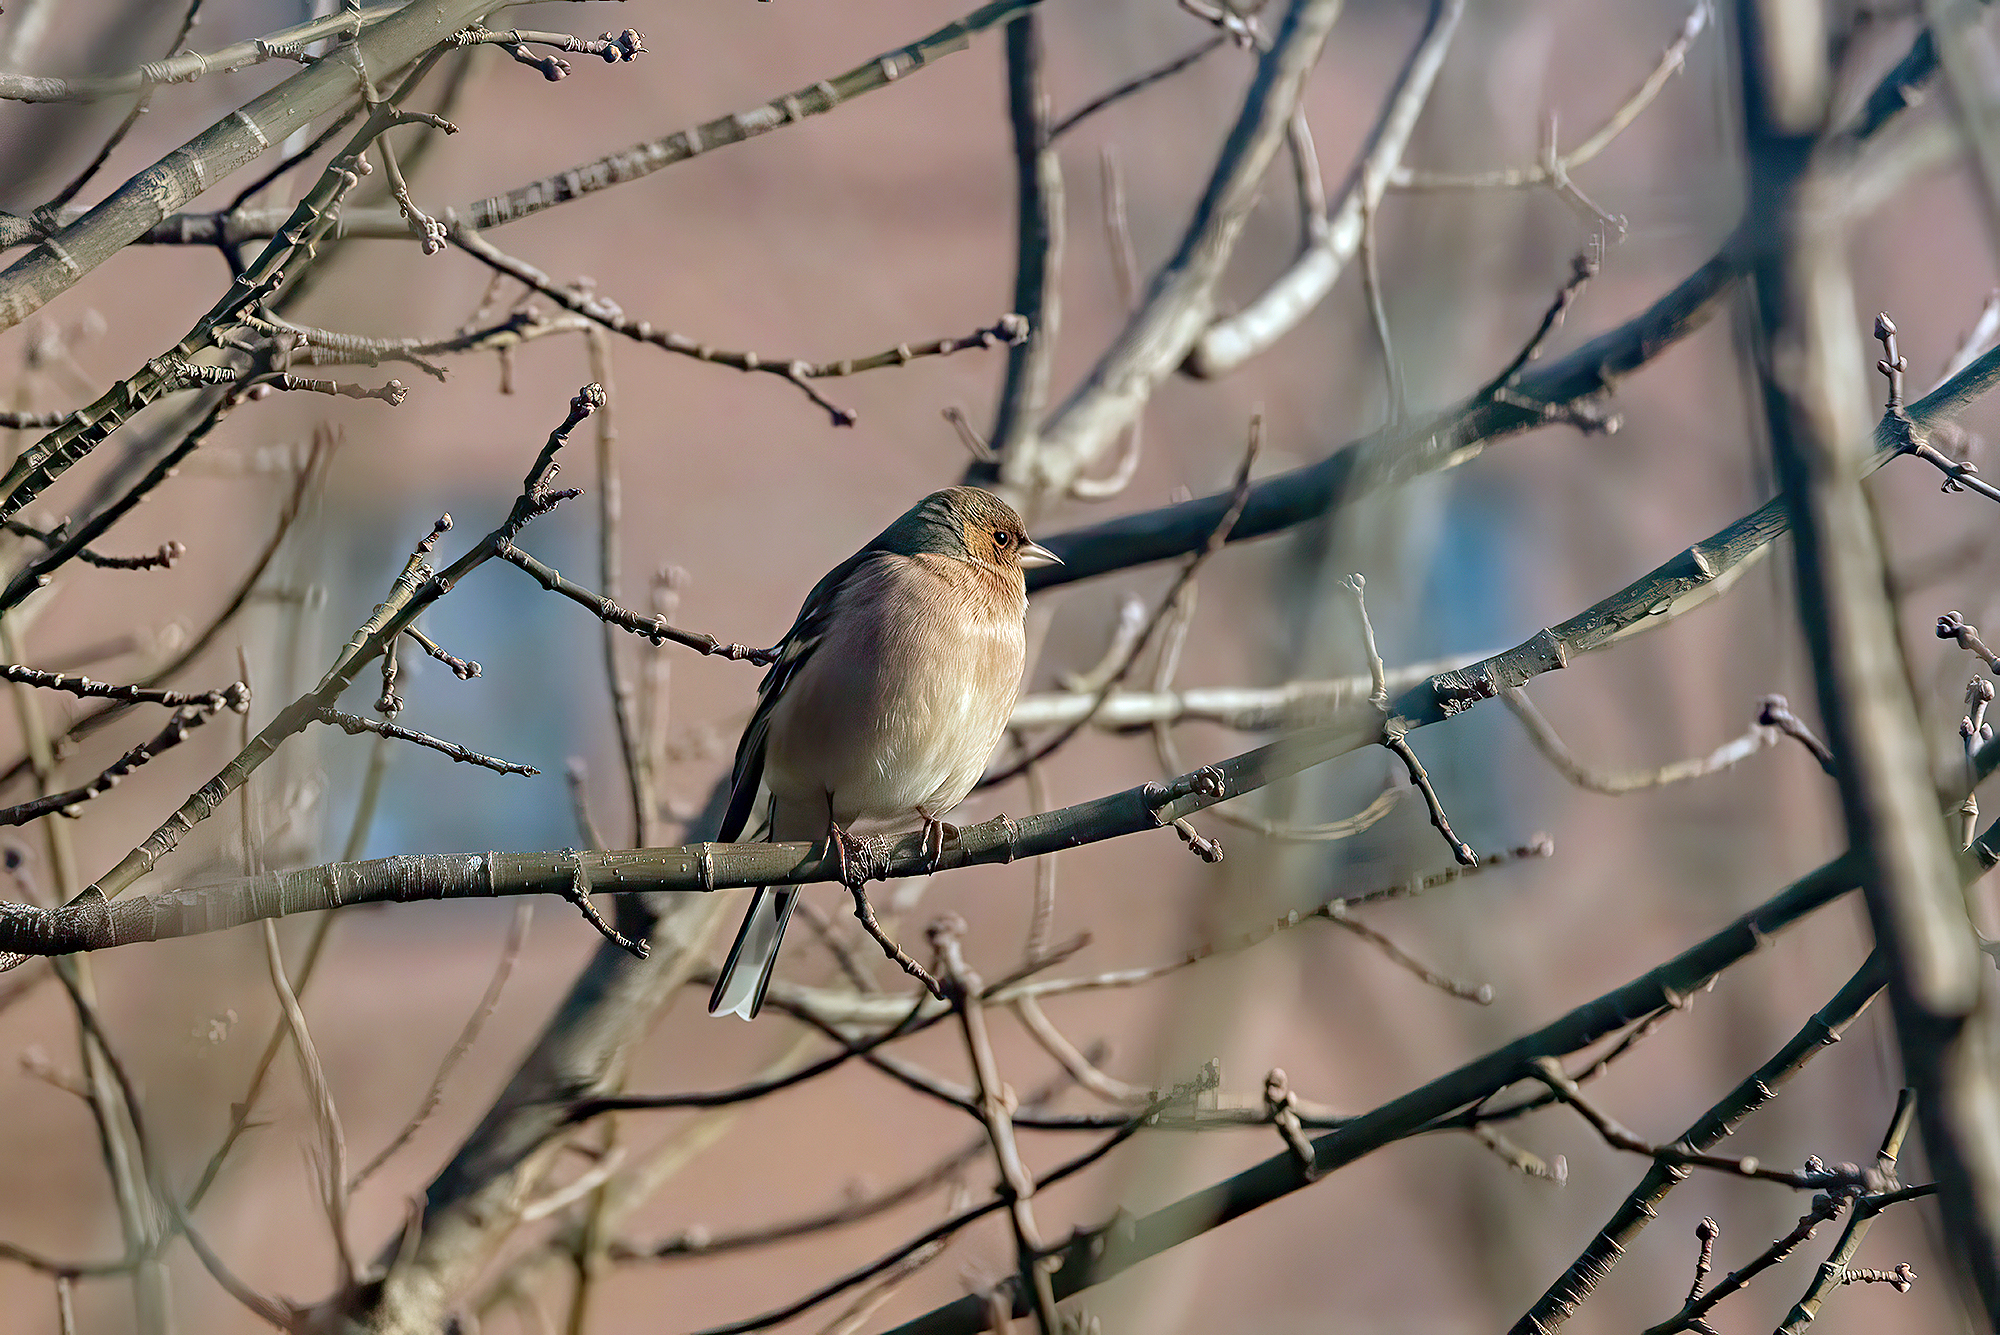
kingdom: Animalia
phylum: Chordata
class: Aves
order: Passeriformes
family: Fringillidae
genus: Fringilla
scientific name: Fringilla coelebs
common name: Common chaffinch
